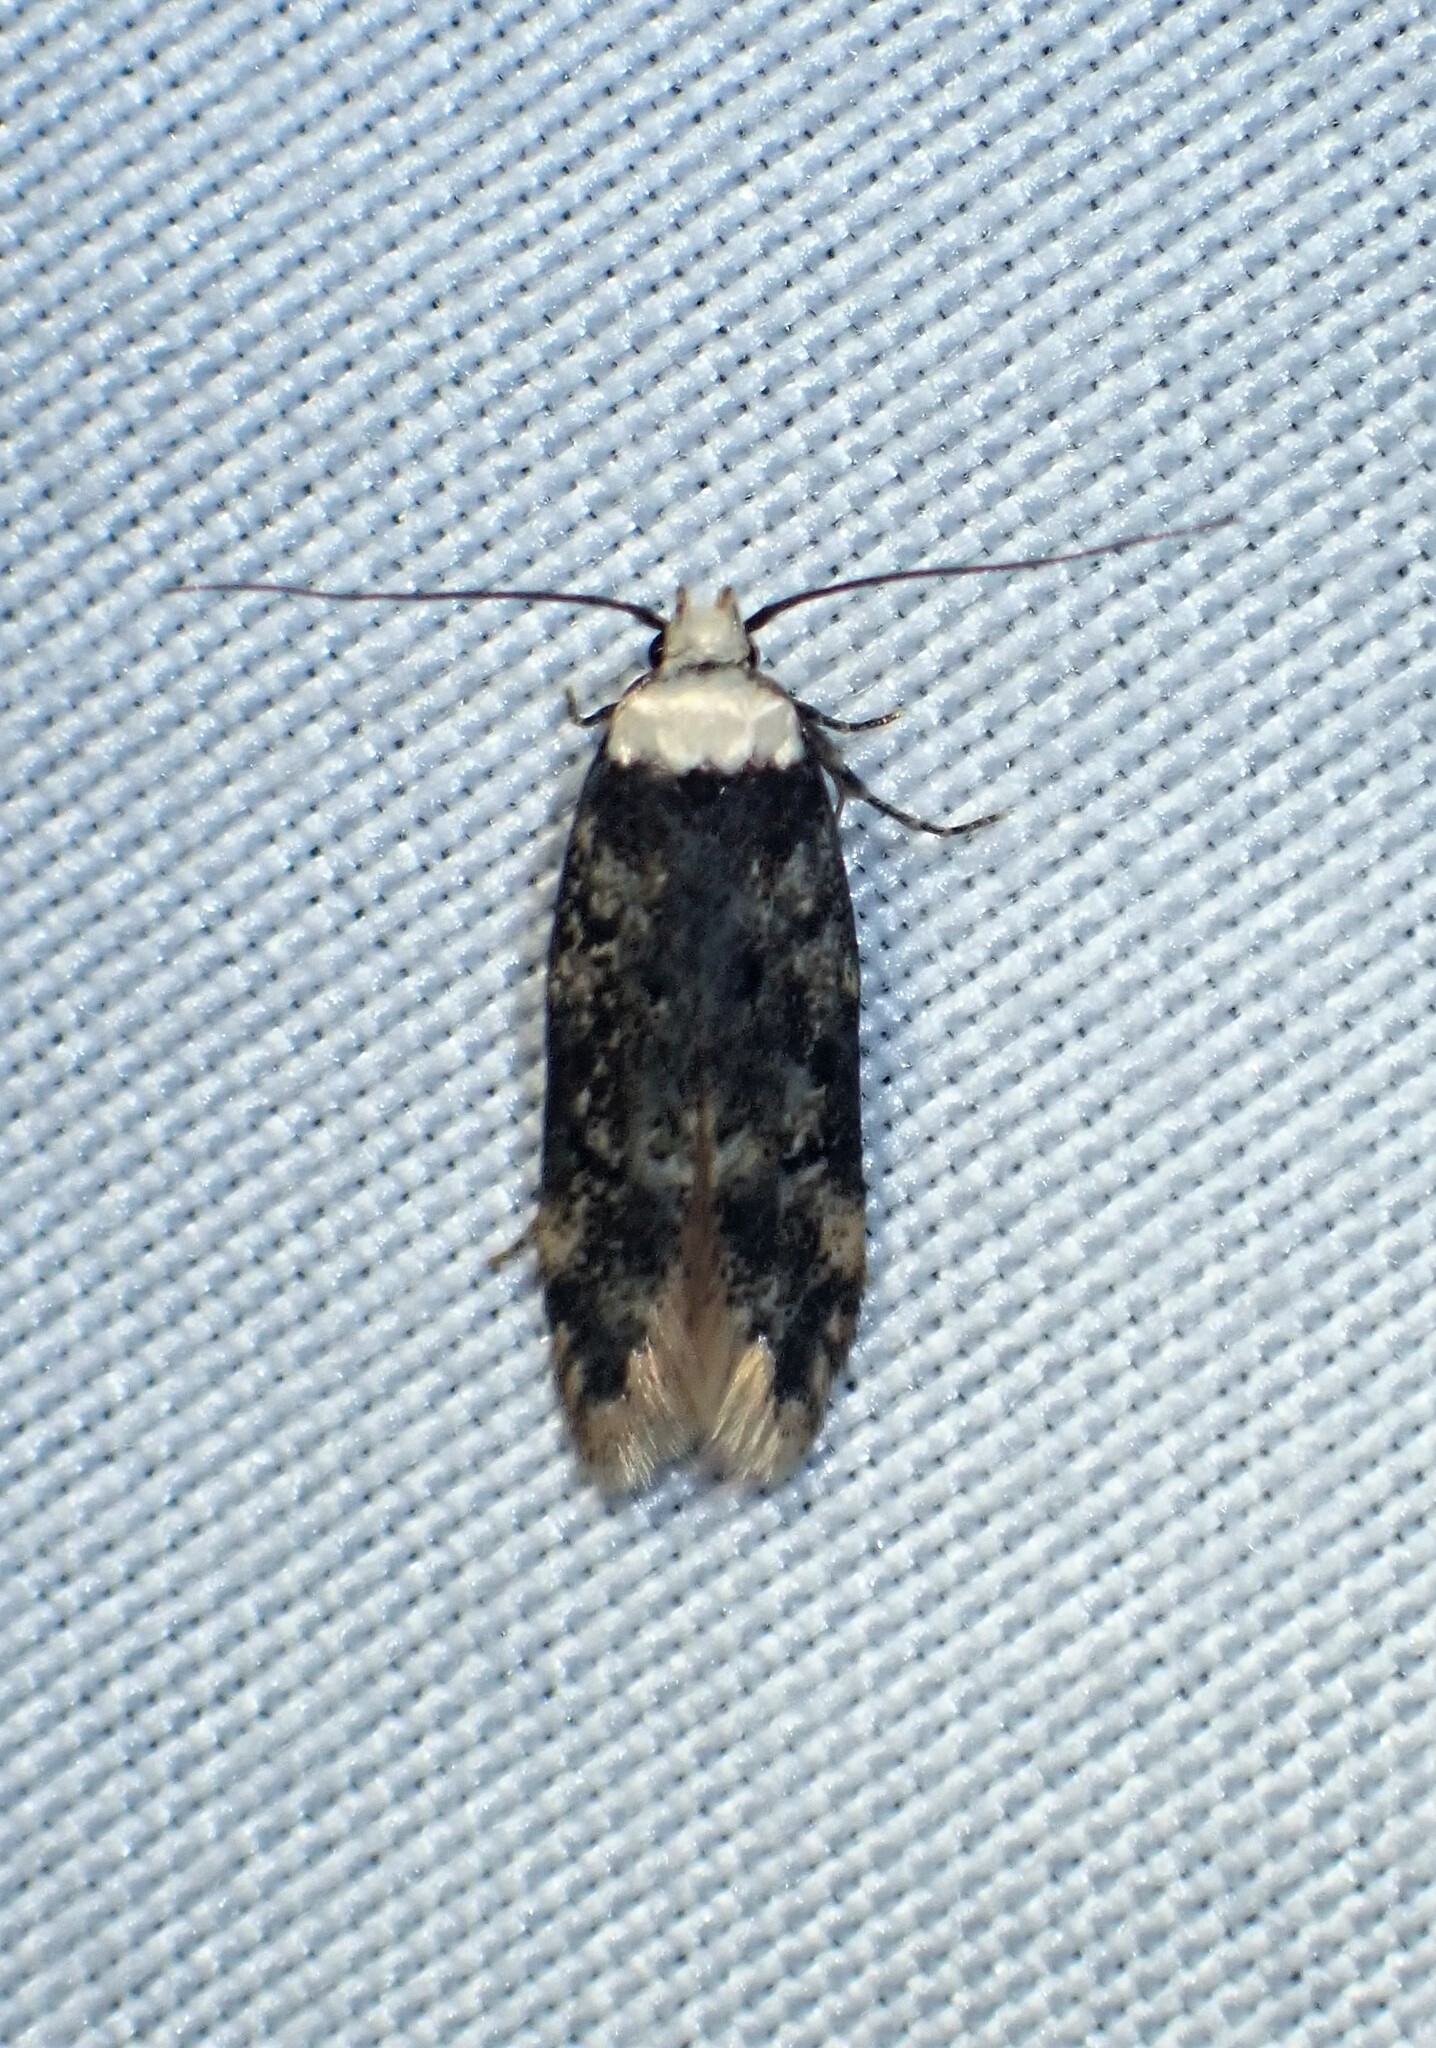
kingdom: Animalia
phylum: Arthropoda
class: Insecta
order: Lepidoptera
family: Oecophoridae
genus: Endrosis
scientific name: Endrosis sarcitrella
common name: White-shouldered house moth
